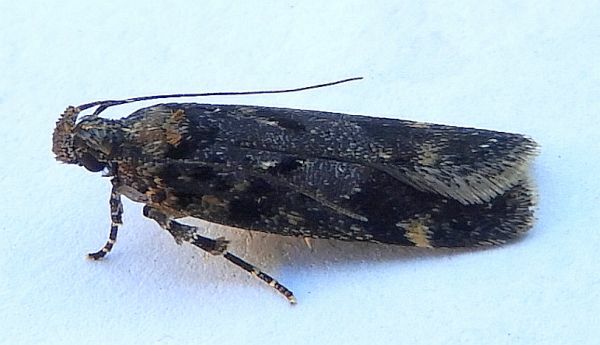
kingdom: Animalia
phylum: Arthropoda
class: Insecta
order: Lepidoptera
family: Gelechiidae
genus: Chionodes
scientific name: Chionodes sevir
